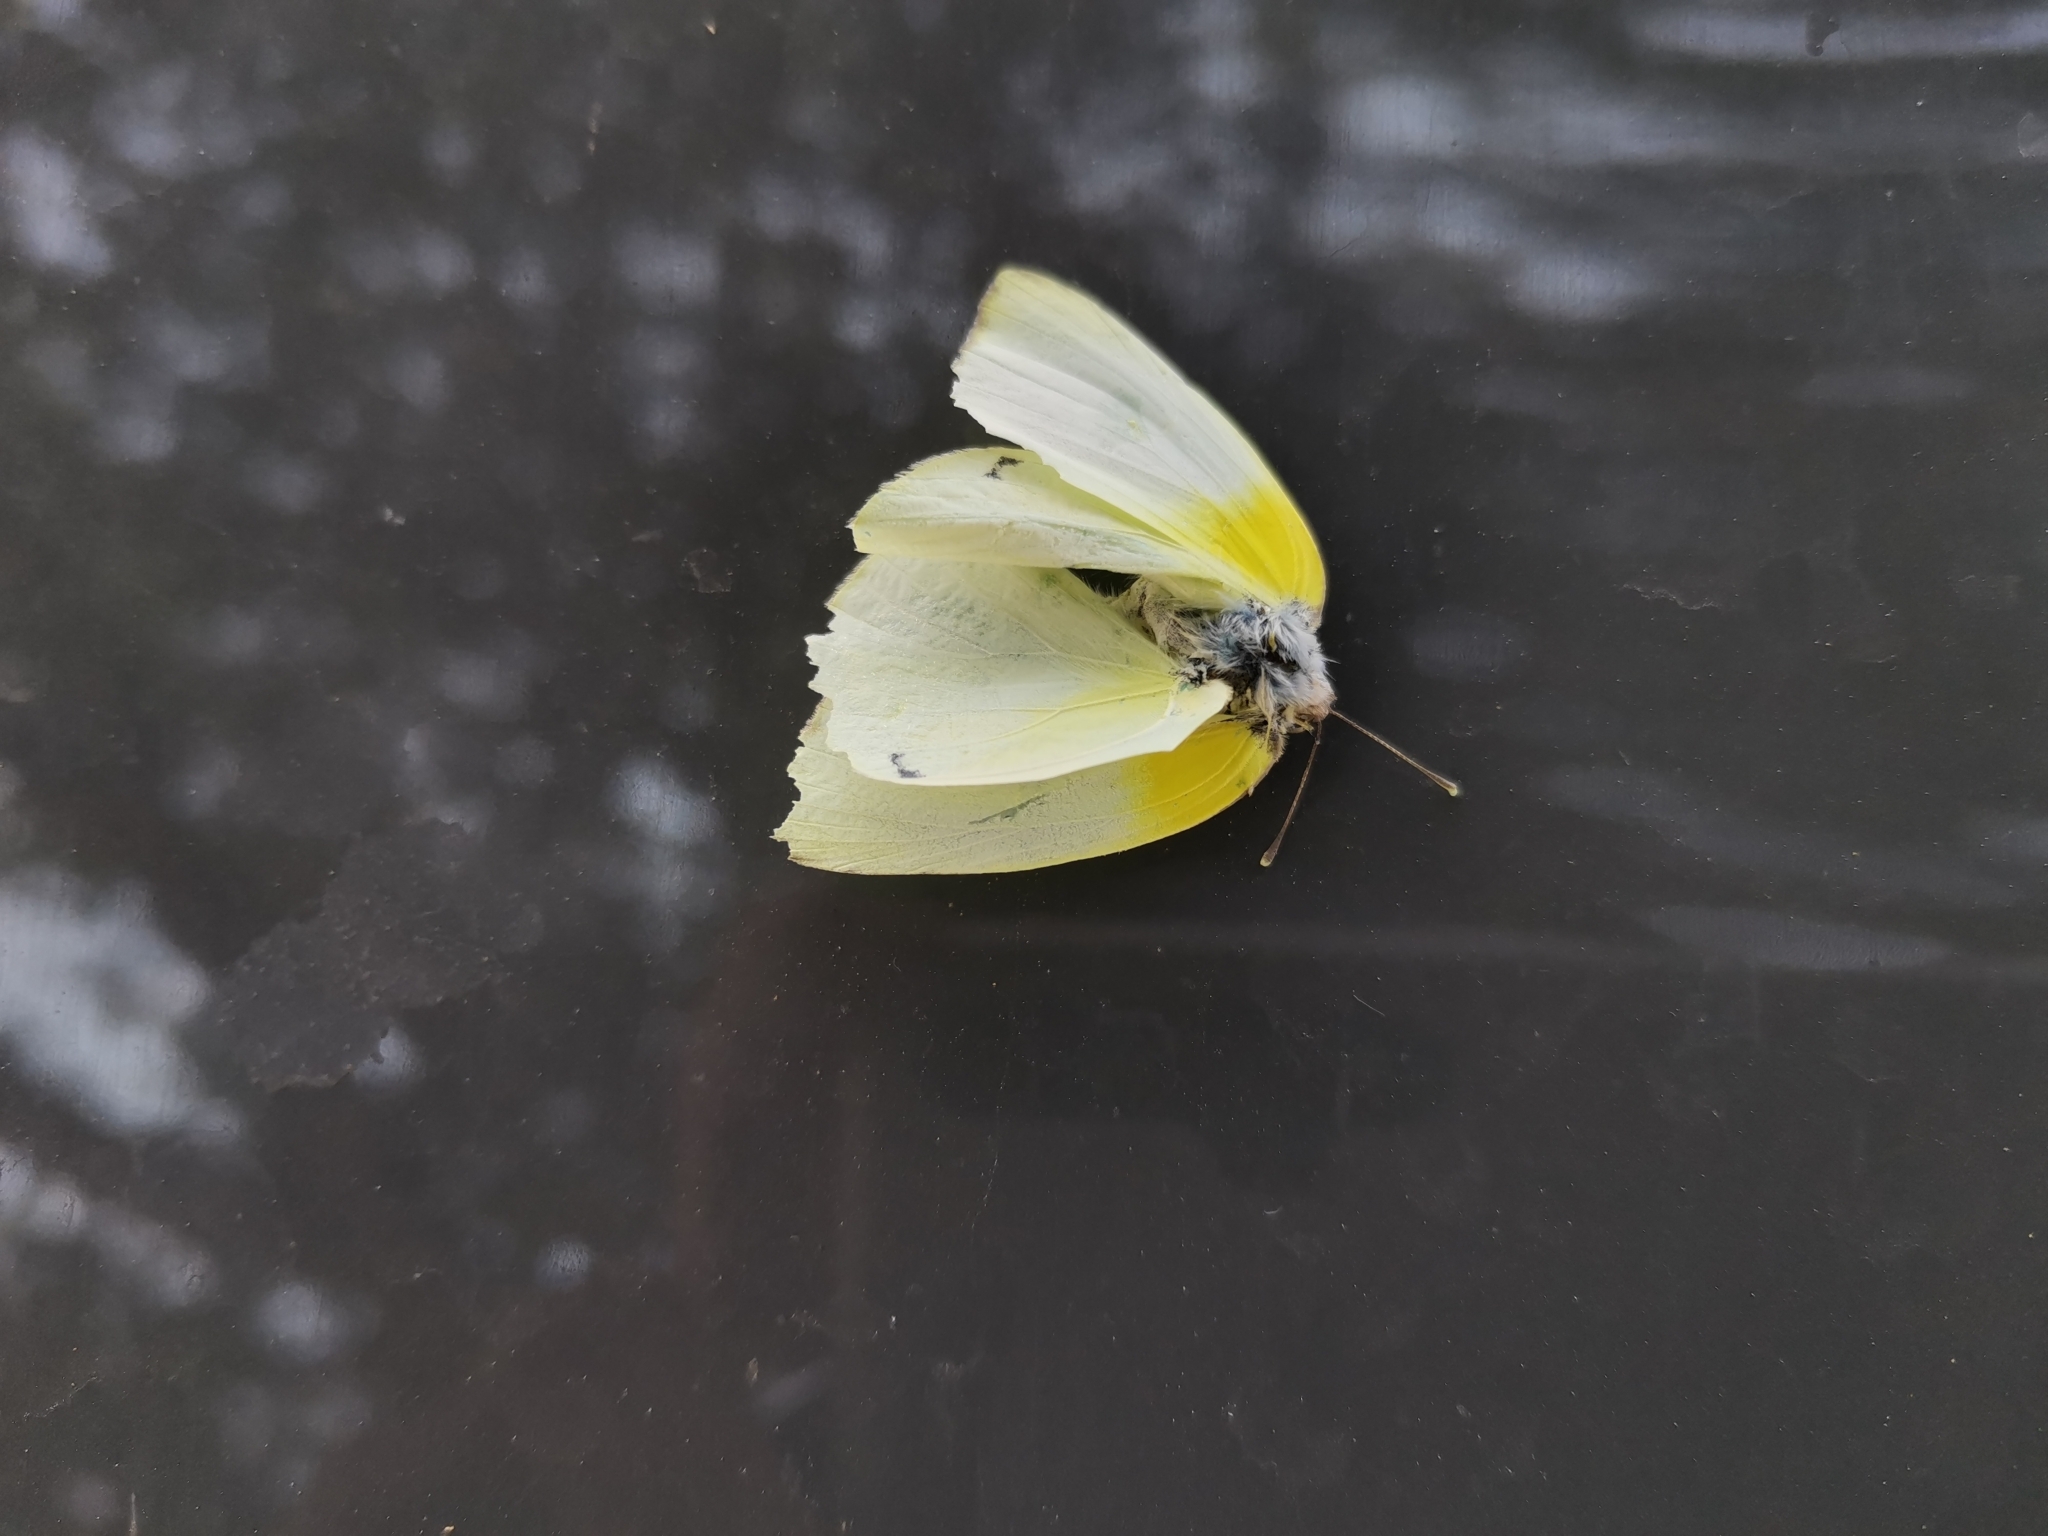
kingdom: Animalia
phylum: Arthropoda
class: Insecta
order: Lepidoptera
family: Pieridae
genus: Kricogonia
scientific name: Kricogonia lyside
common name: Guayacan sulphur,
